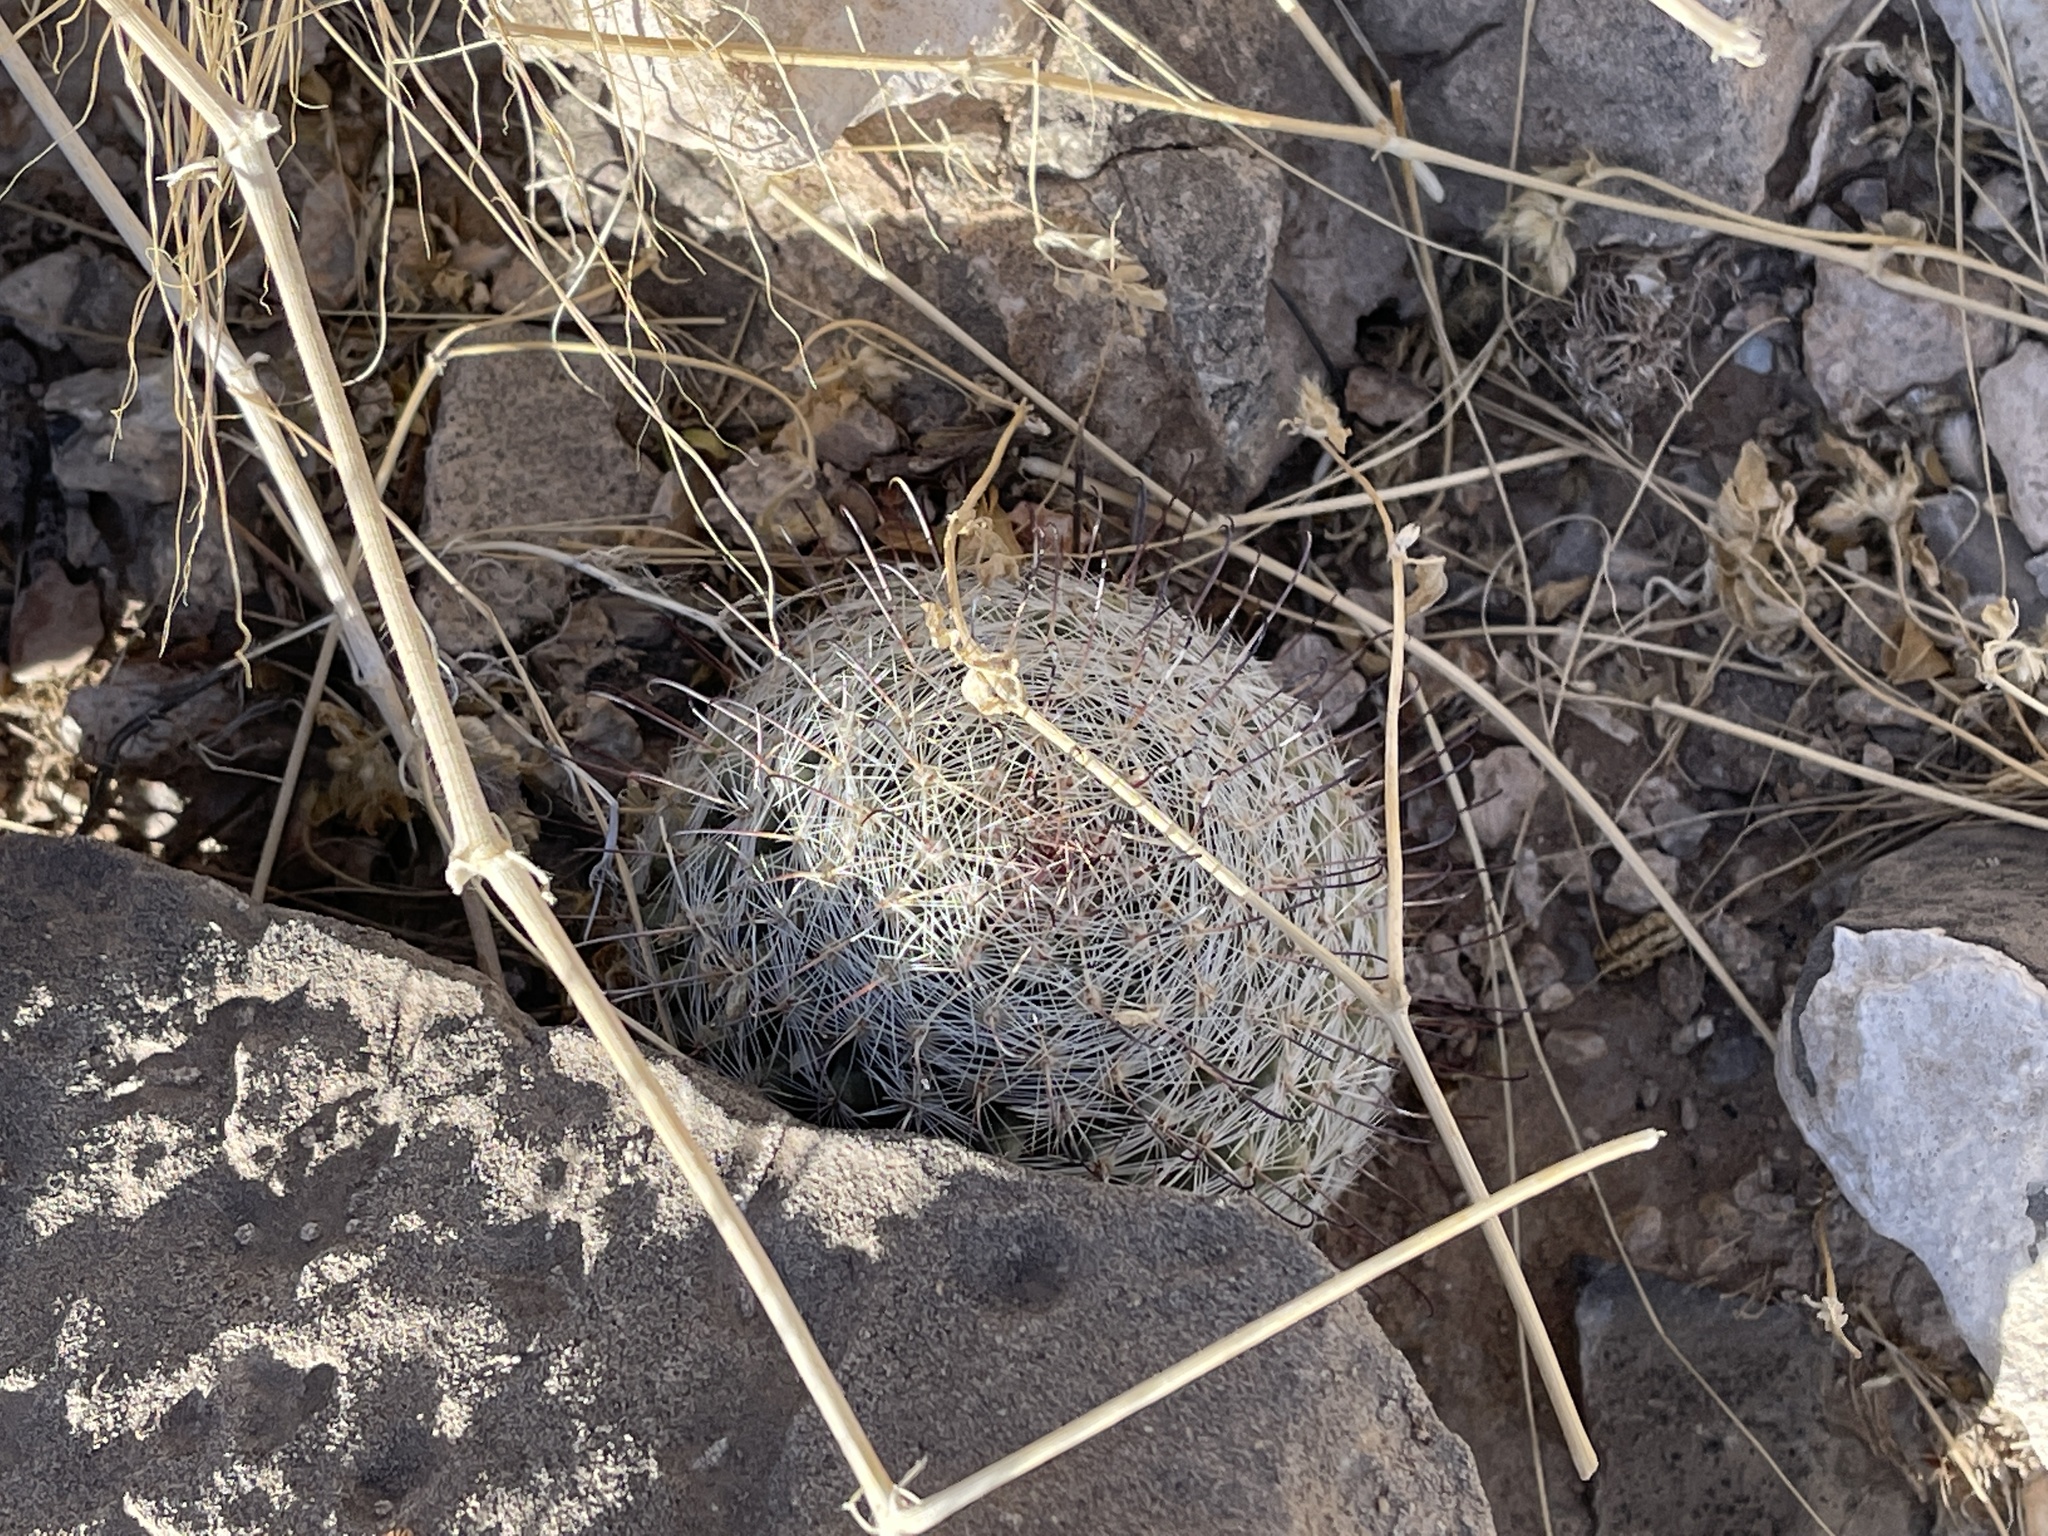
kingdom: Plantae
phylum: Tracheophyta
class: Magnoliopsida
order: Caryophyllales
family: Cactaceae
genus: Cochemiea
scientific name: Cochemiea grahamii
